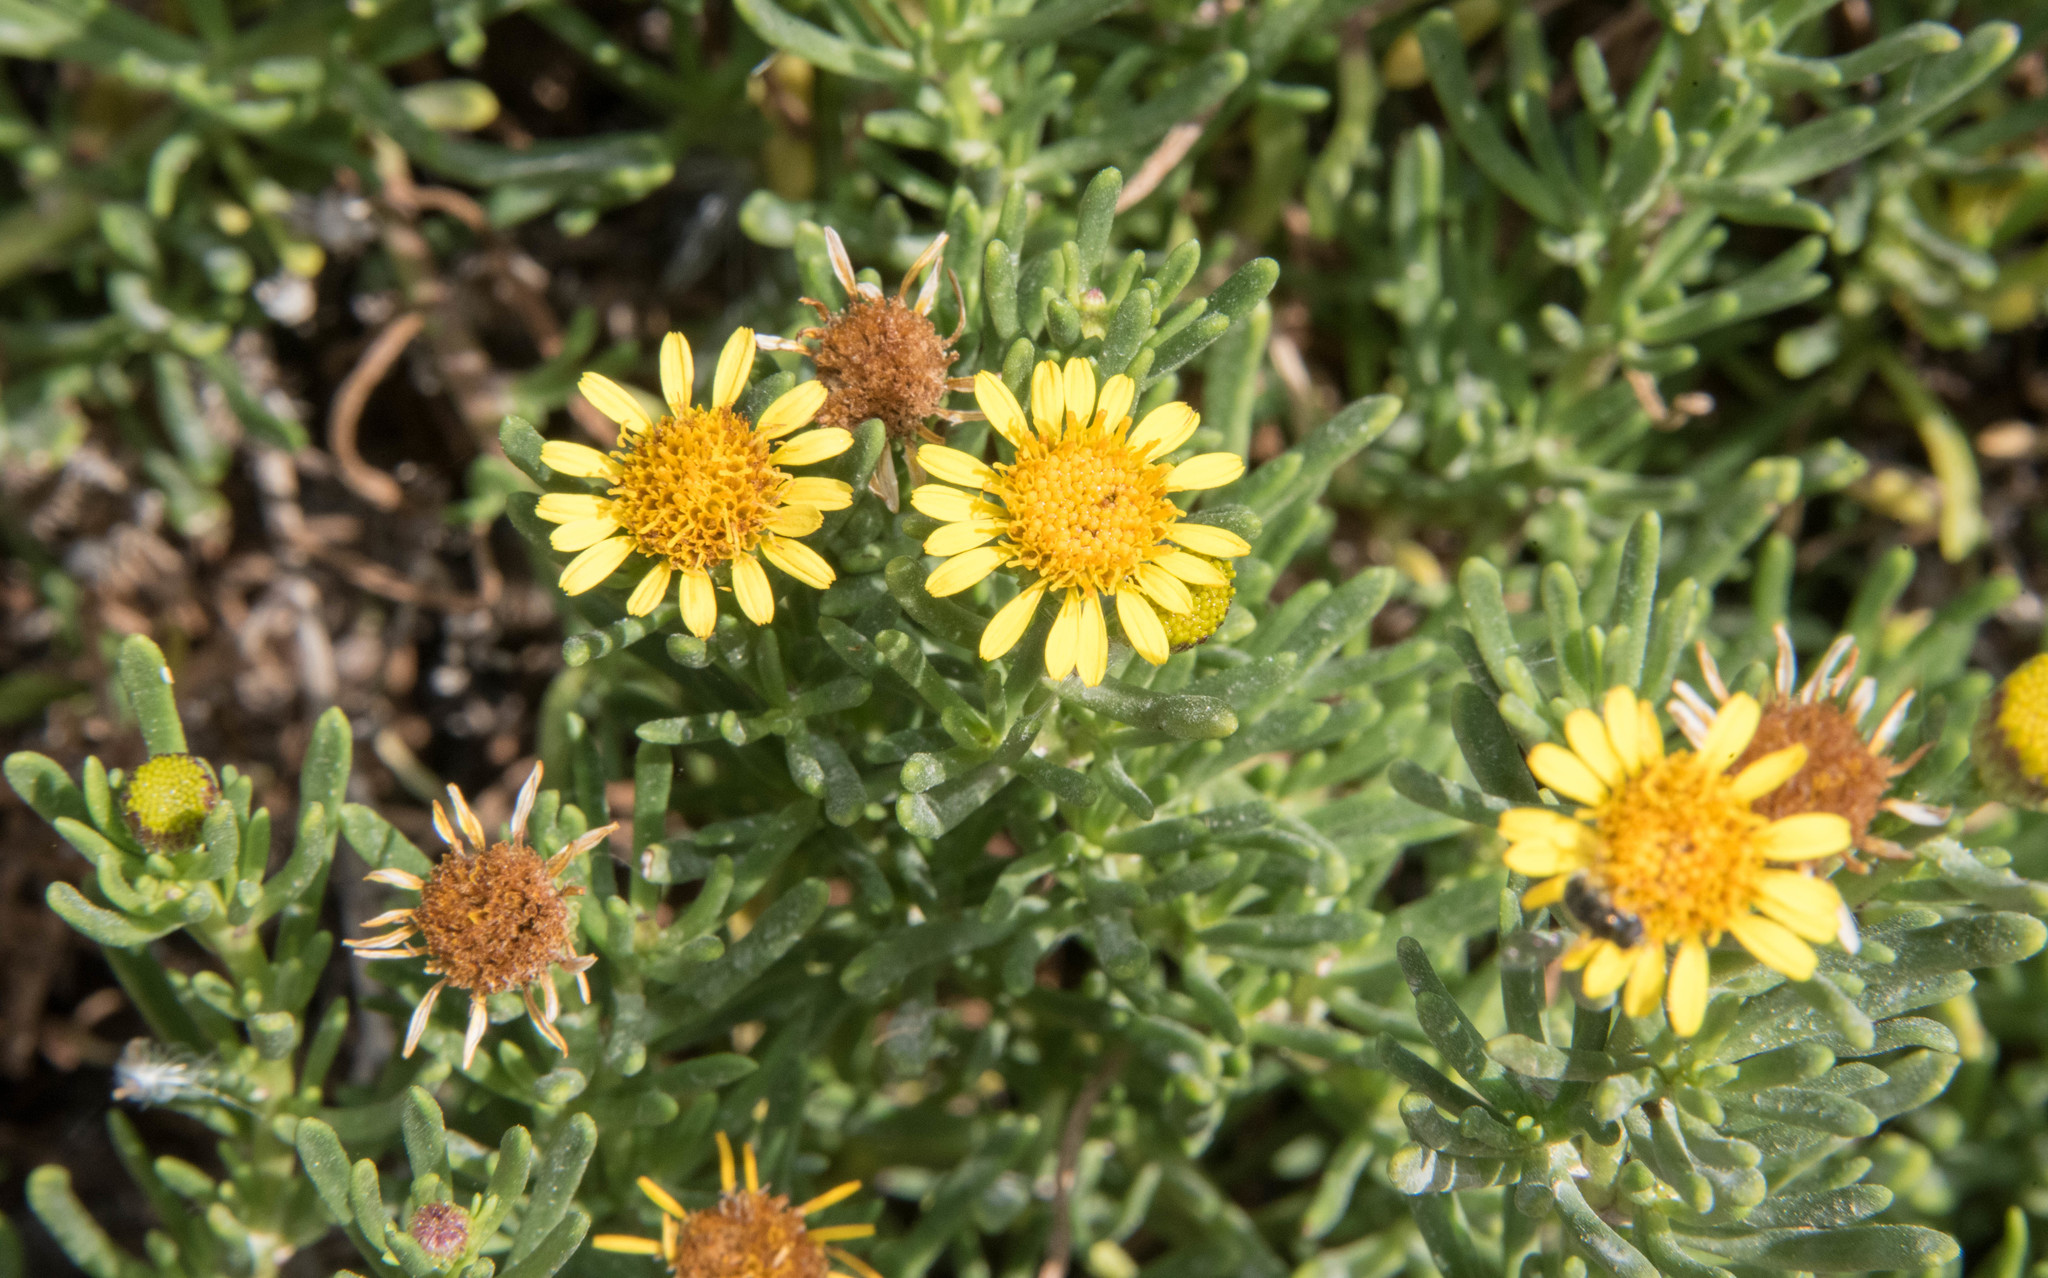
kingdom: Plantae
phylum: Tracheophyta
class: Magnoliopsida
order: Asterales
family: Asteraceae
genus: Limbarda
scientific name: Limbarda crithmoides
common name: Golden samphire
